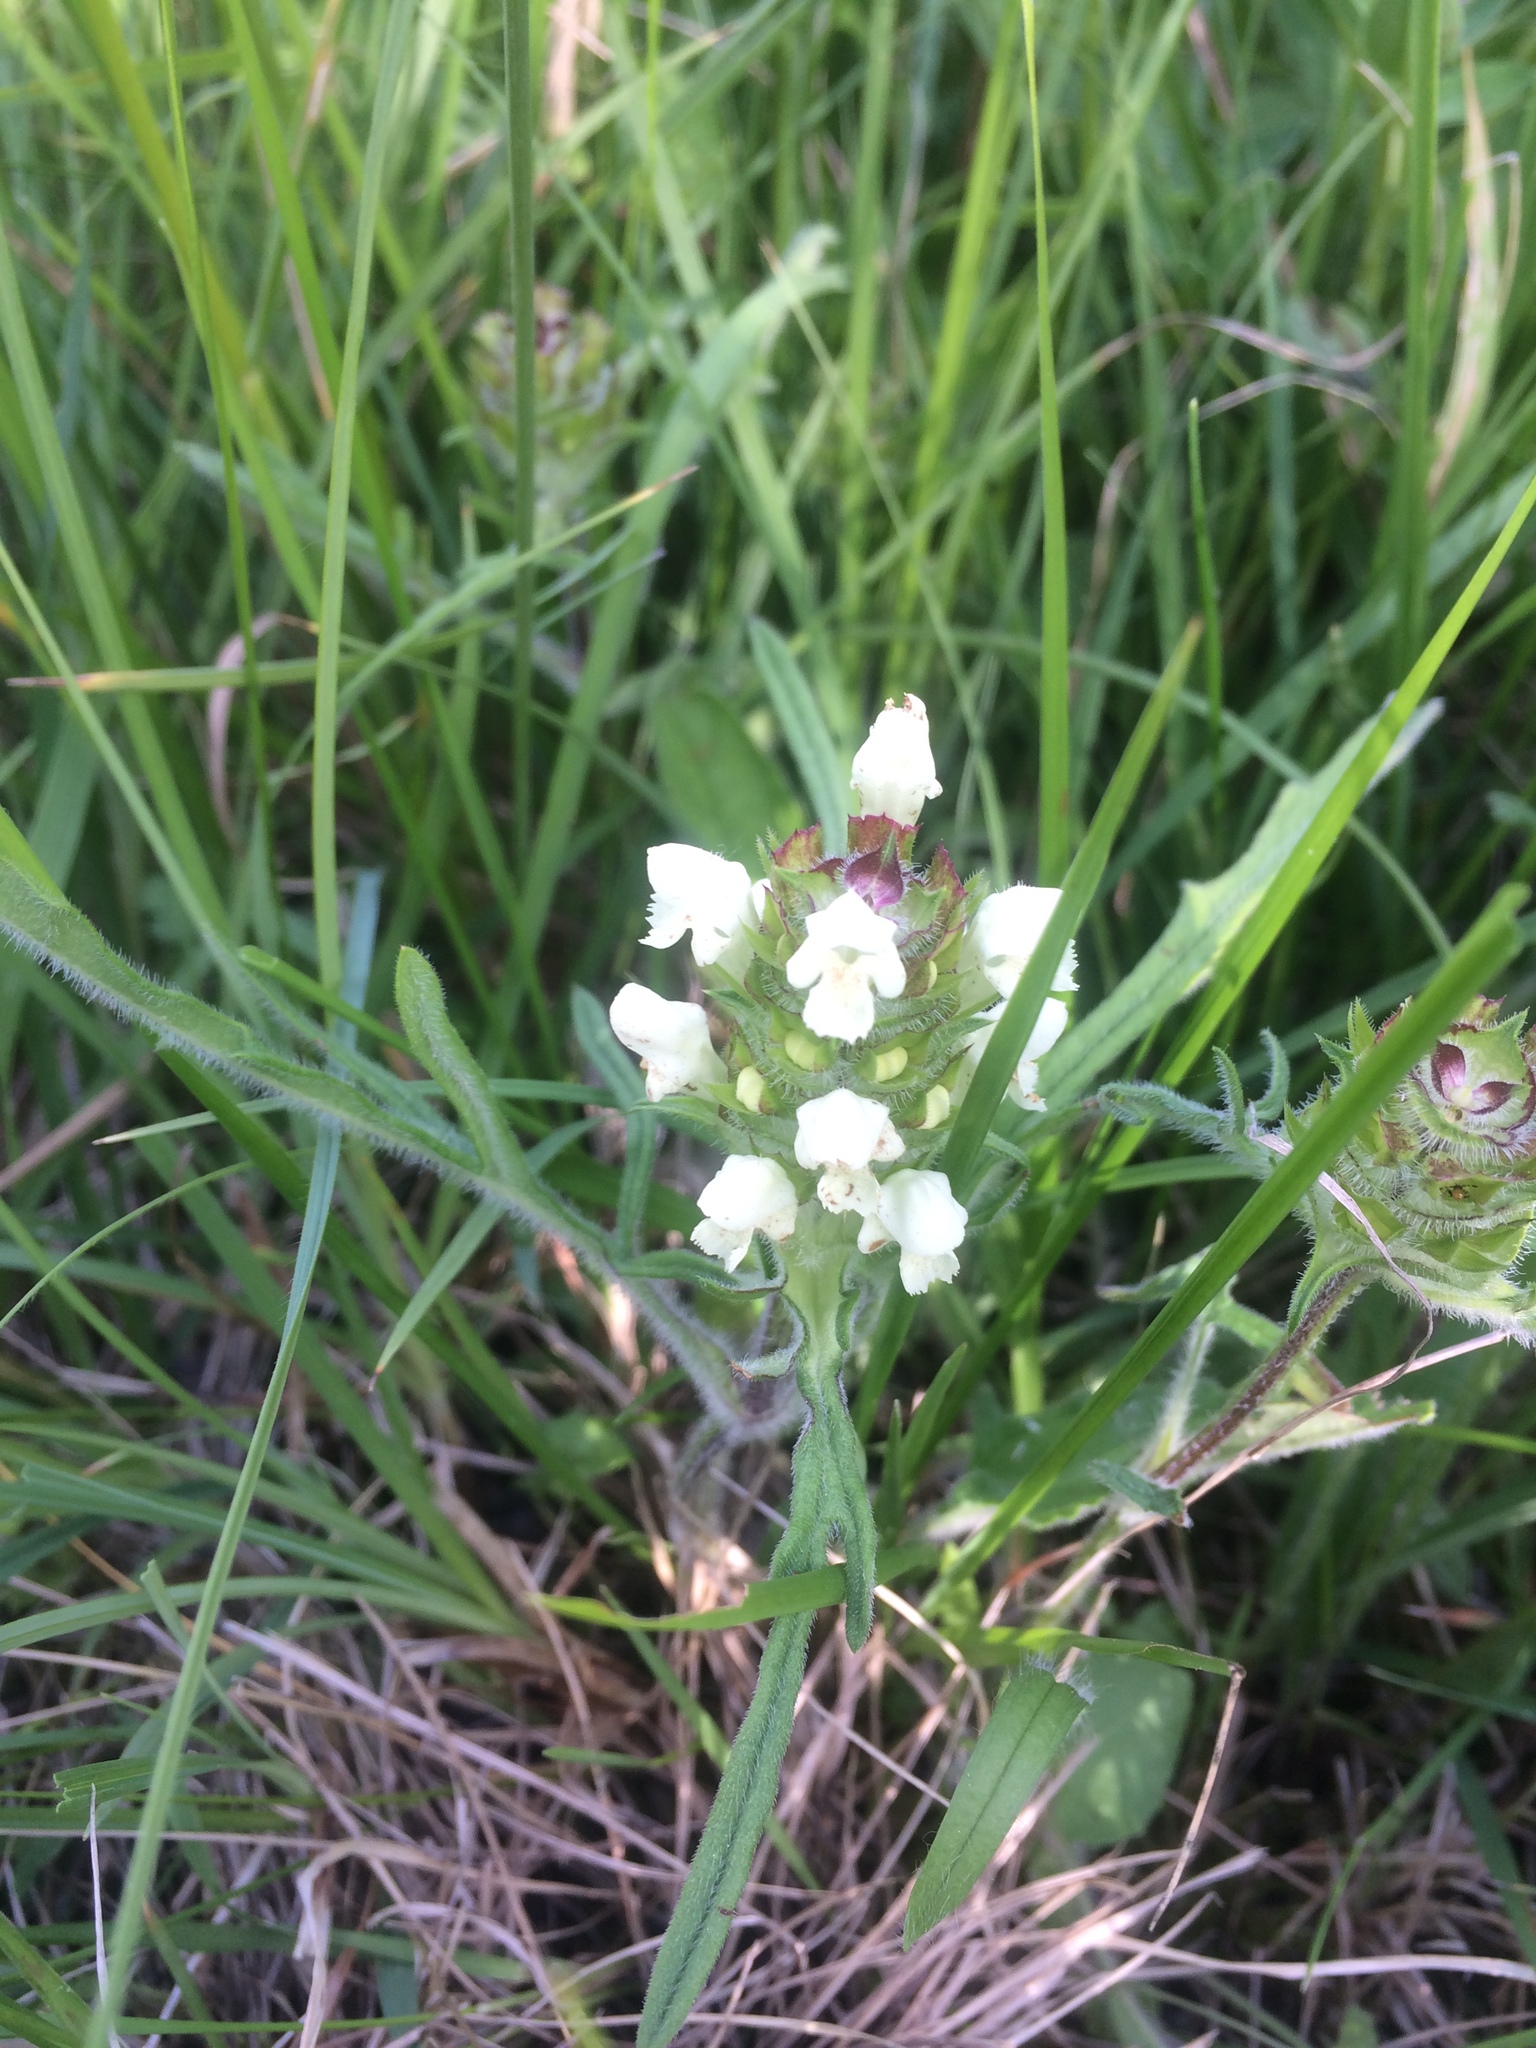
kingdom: Plantae
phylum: Tracheophyta
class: Magnoliopsida
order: Lamiales
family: Lamiaceae
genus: Prunella
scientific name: Prunella laciniata
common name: Cut-leaved selfheal
